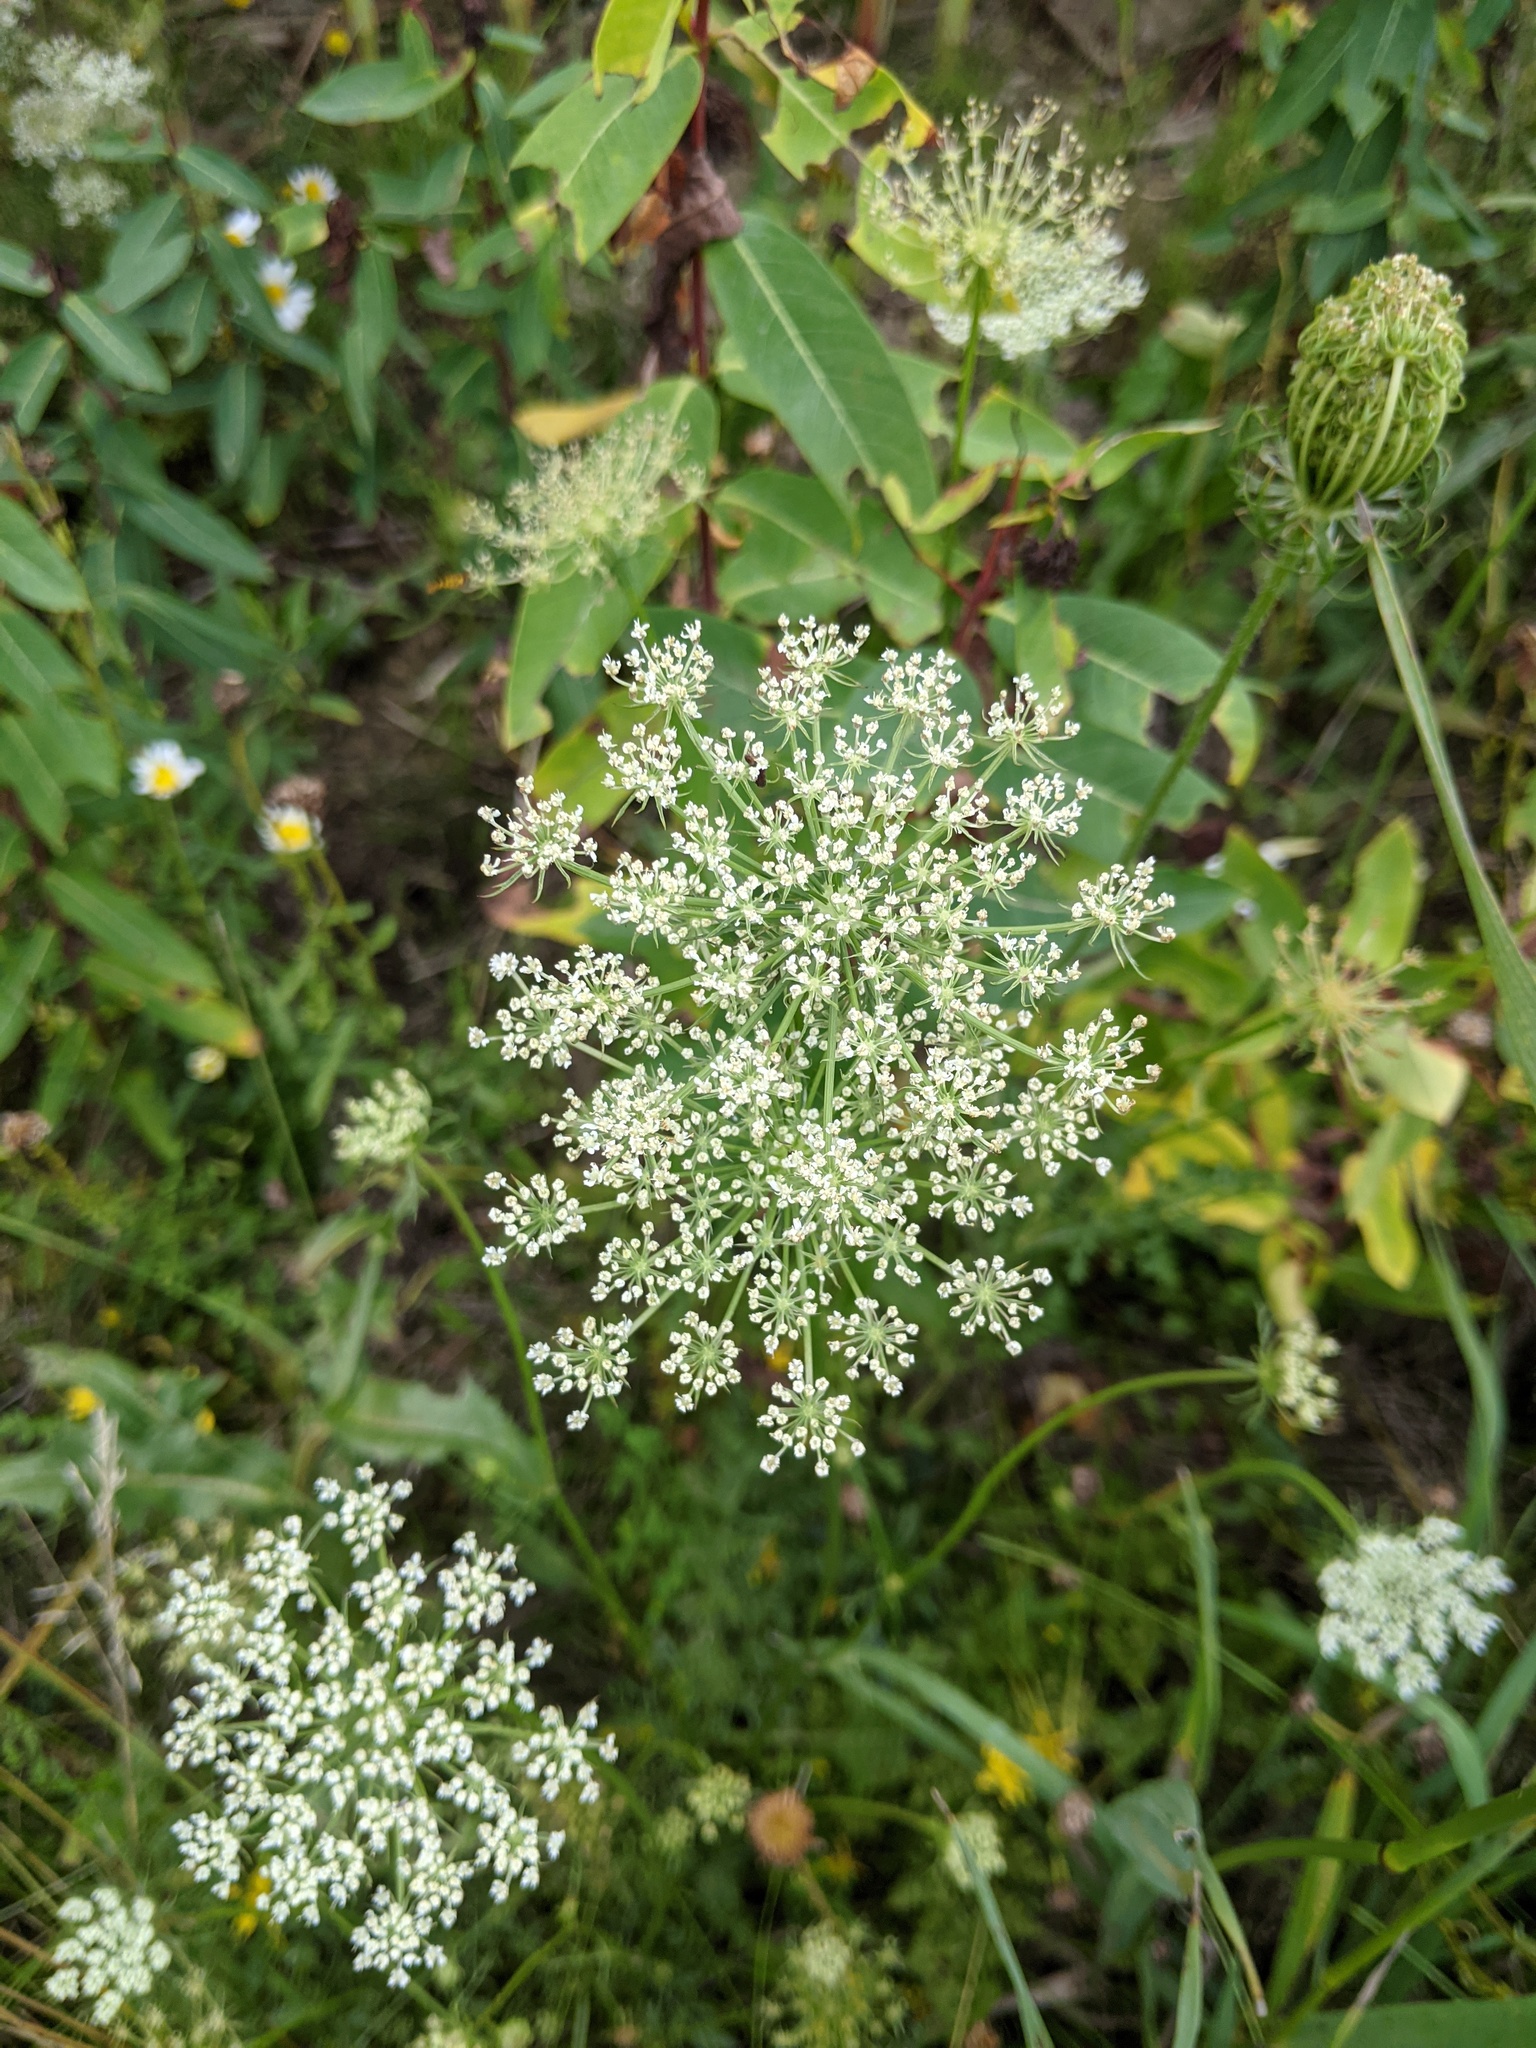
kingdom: Plantae
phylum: Tracheophyta
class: Magnoliopsida
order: Apiales
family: Apiaceae
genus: Daucus
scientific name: Daucus carota
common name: Wild carrot
